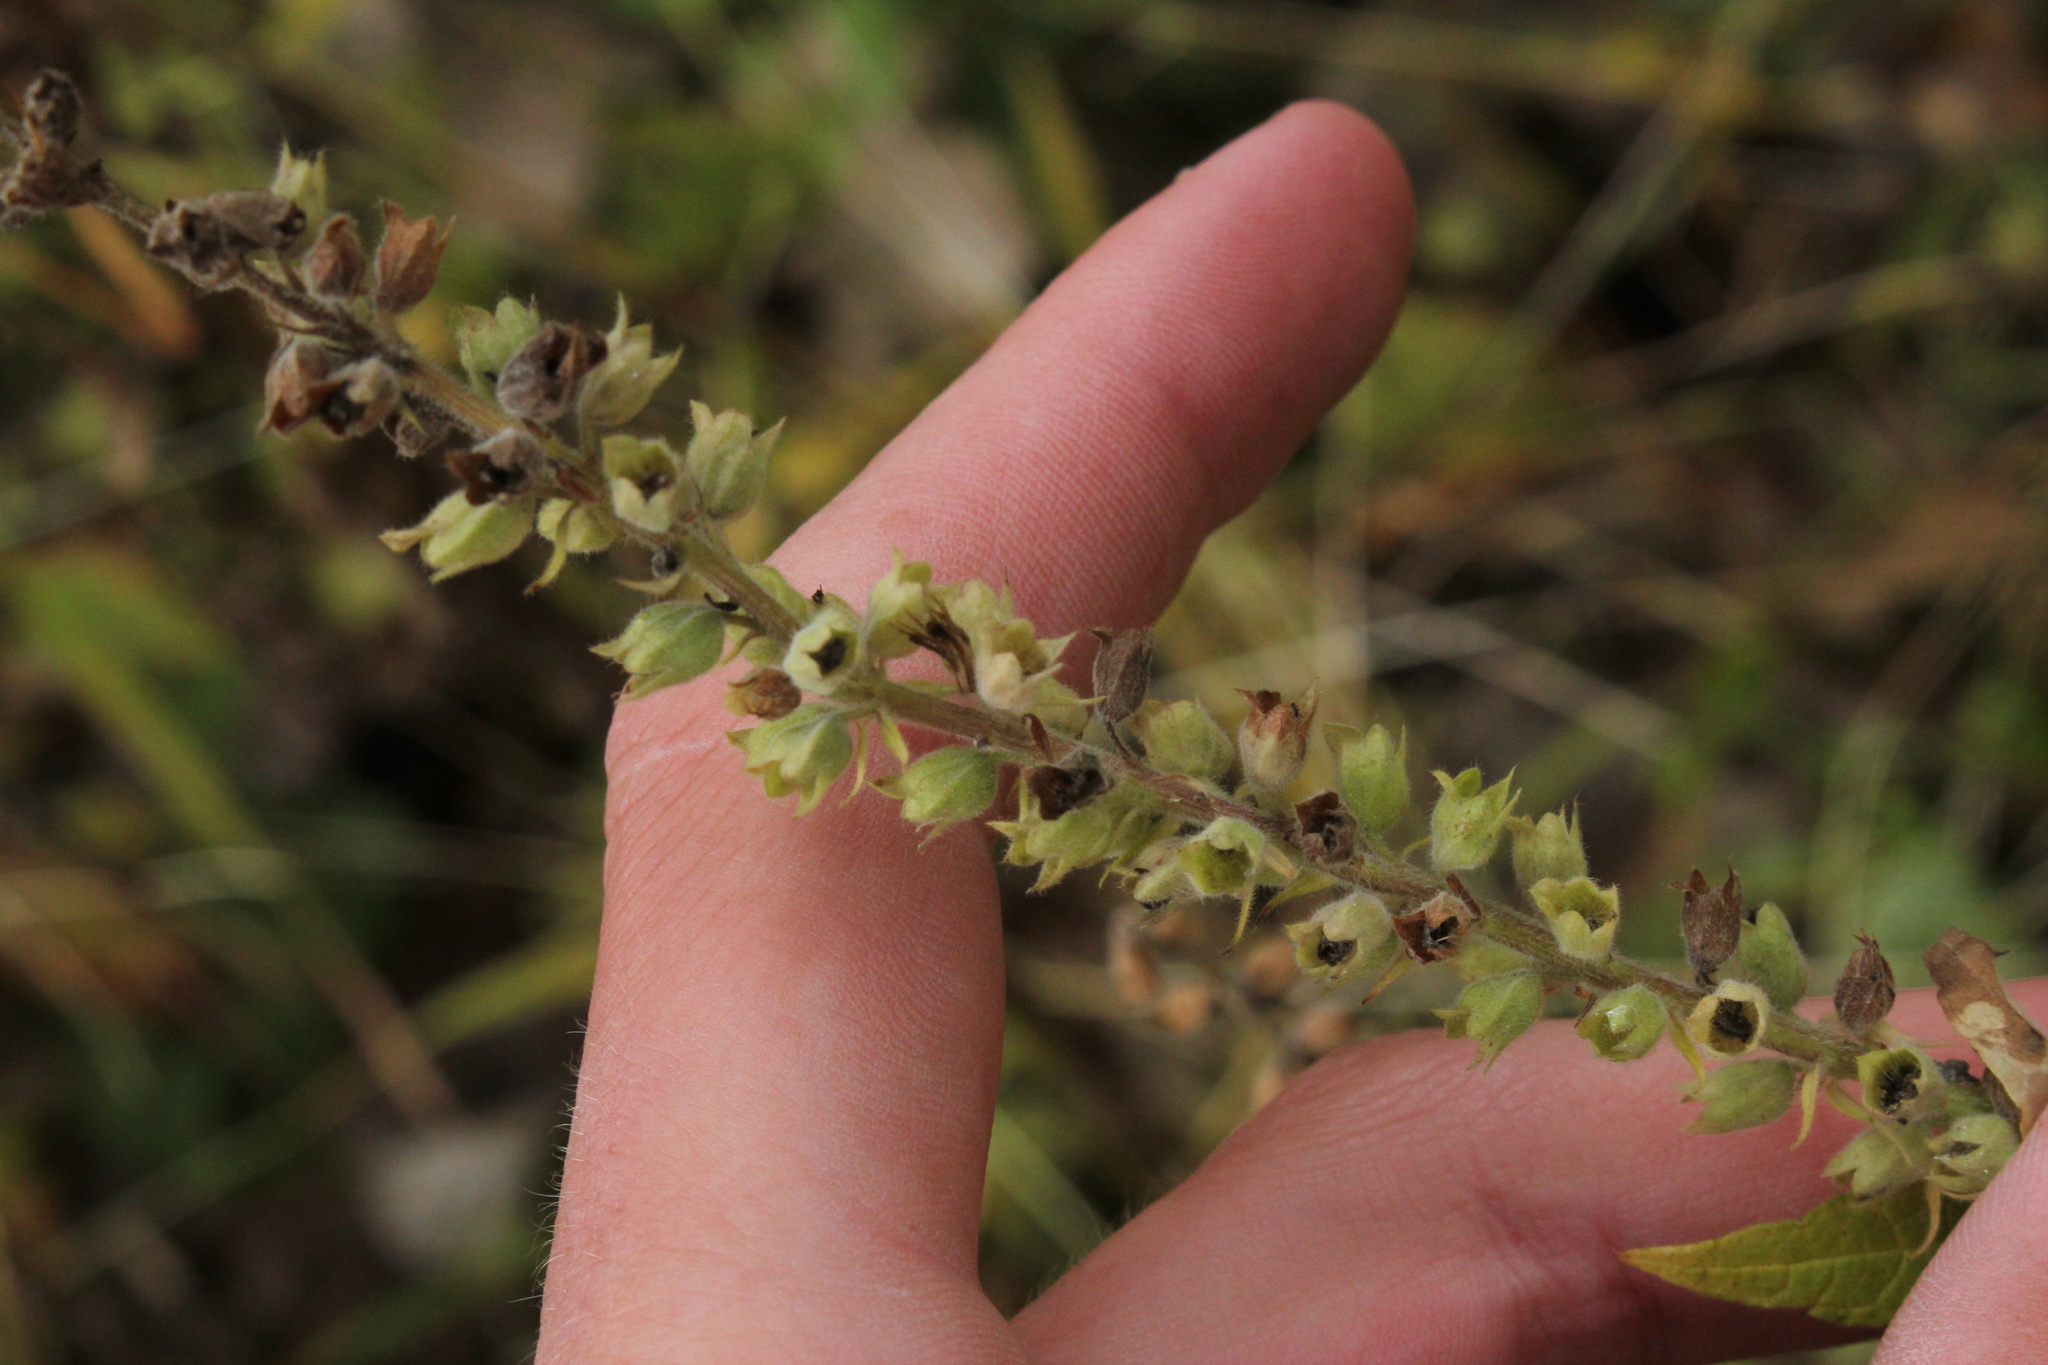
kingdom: Plantae
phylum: Tracheophyta
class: Magnoliopsida
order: Lamiales
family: Lamiaceae
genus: Teucrium
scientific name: Teucrium canadense
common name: American germander
